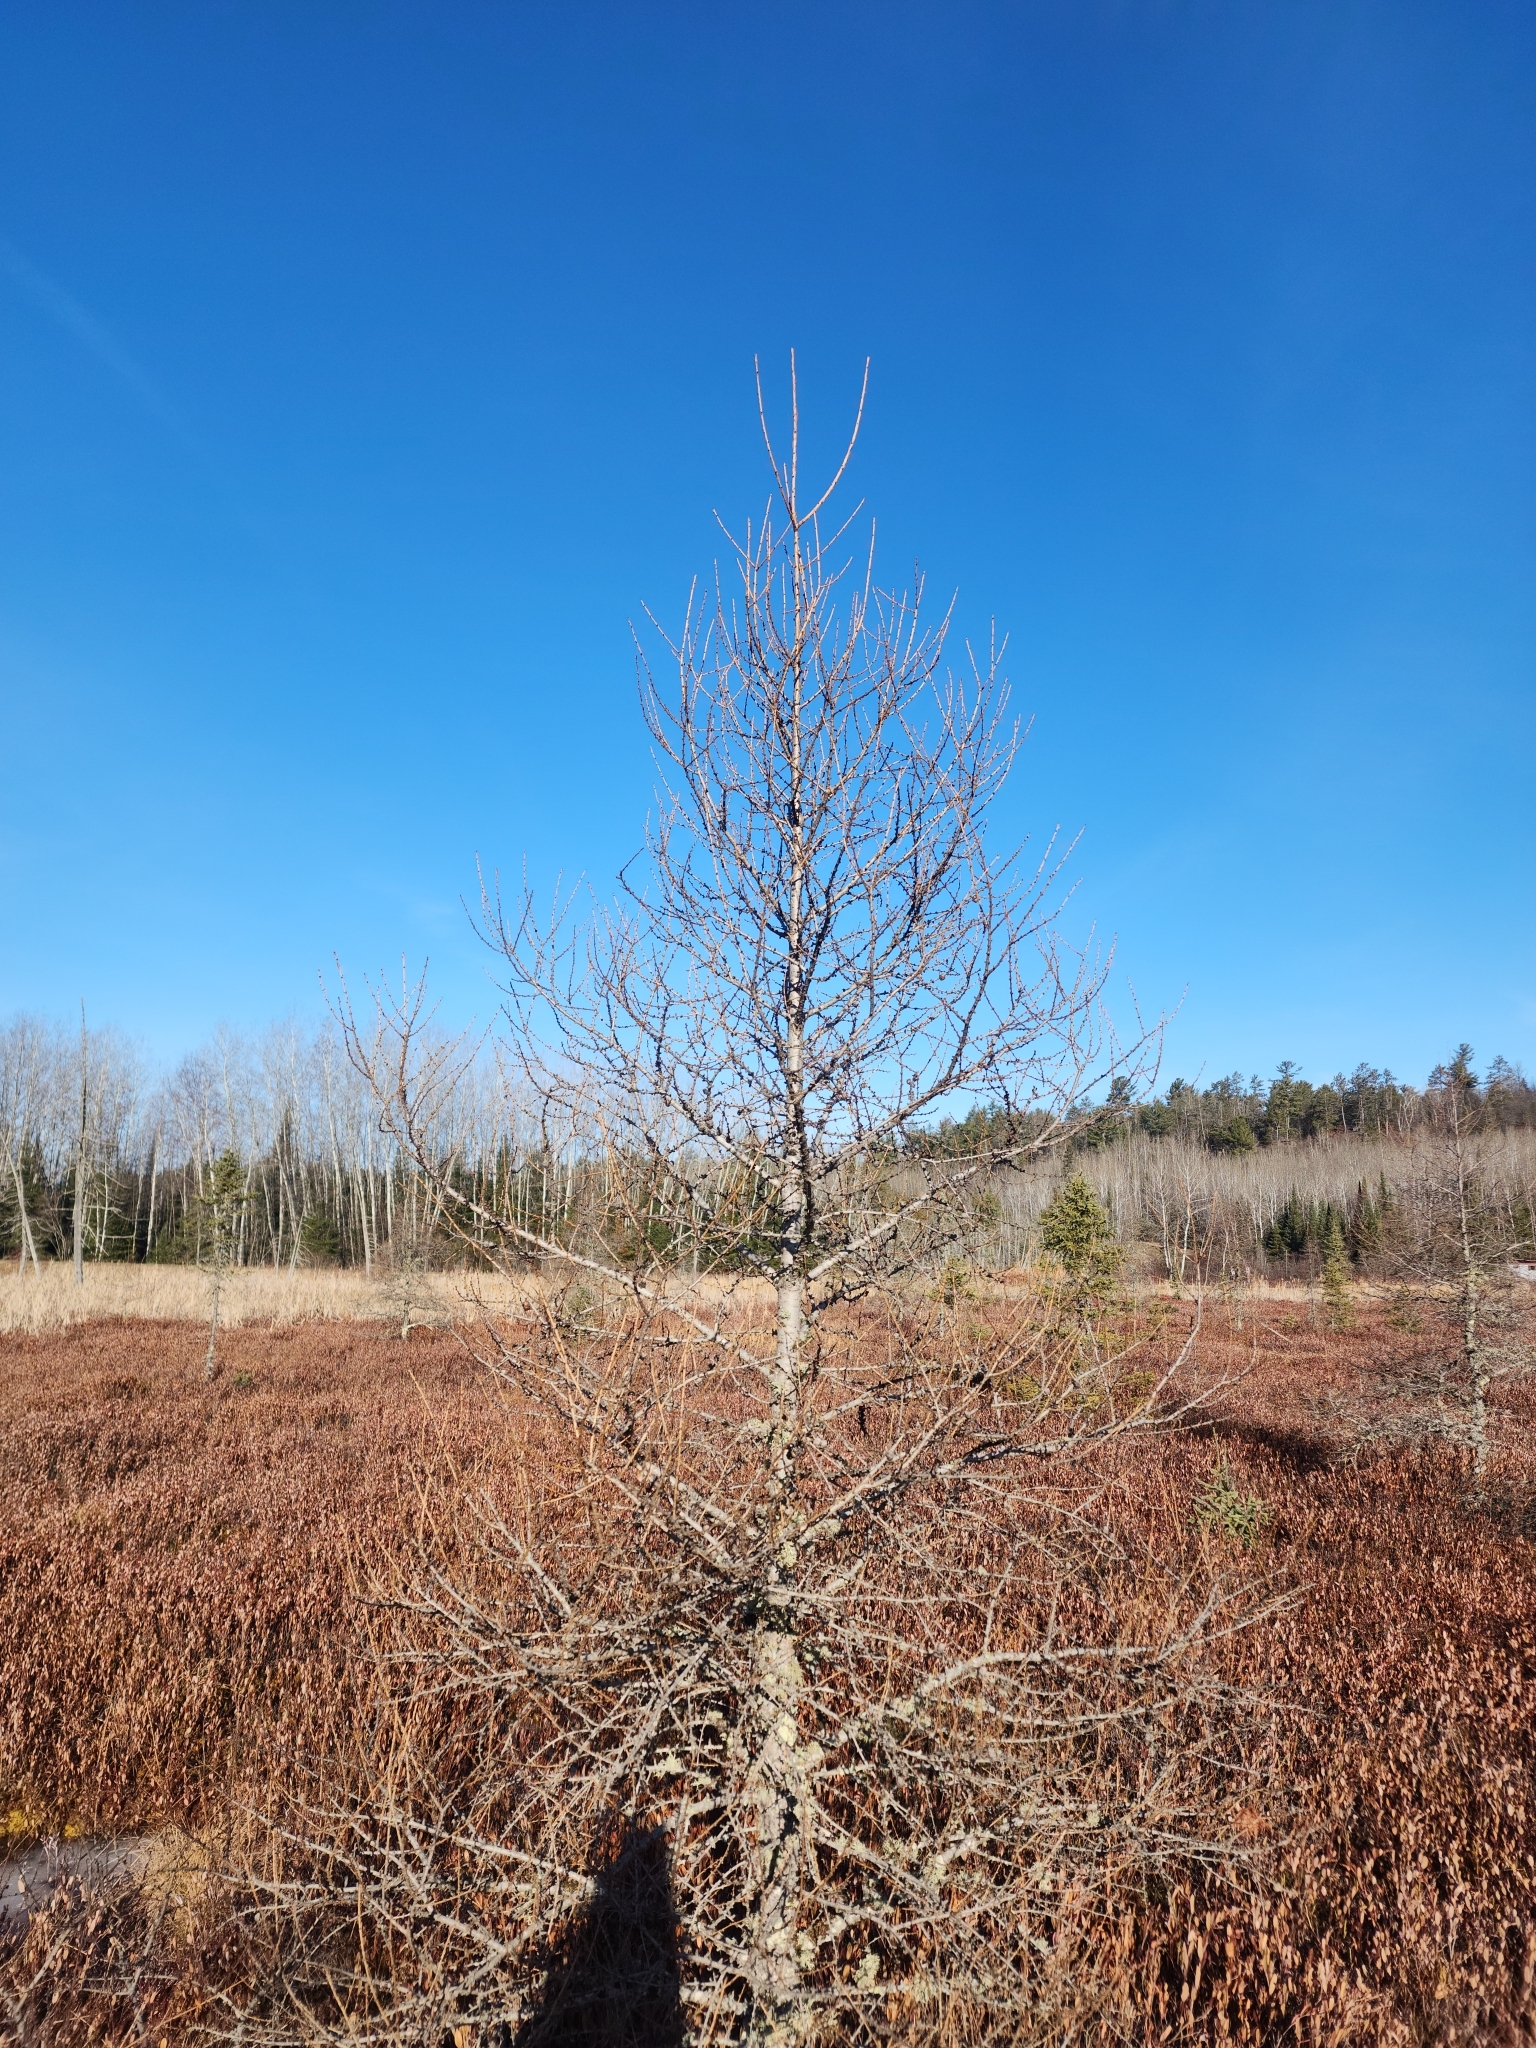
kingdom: Plantae
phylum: Tracheophyta
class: Pinopsida
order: Pinales
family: Pinaceae
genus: Larix
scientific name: Larix laricina
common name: American larch
